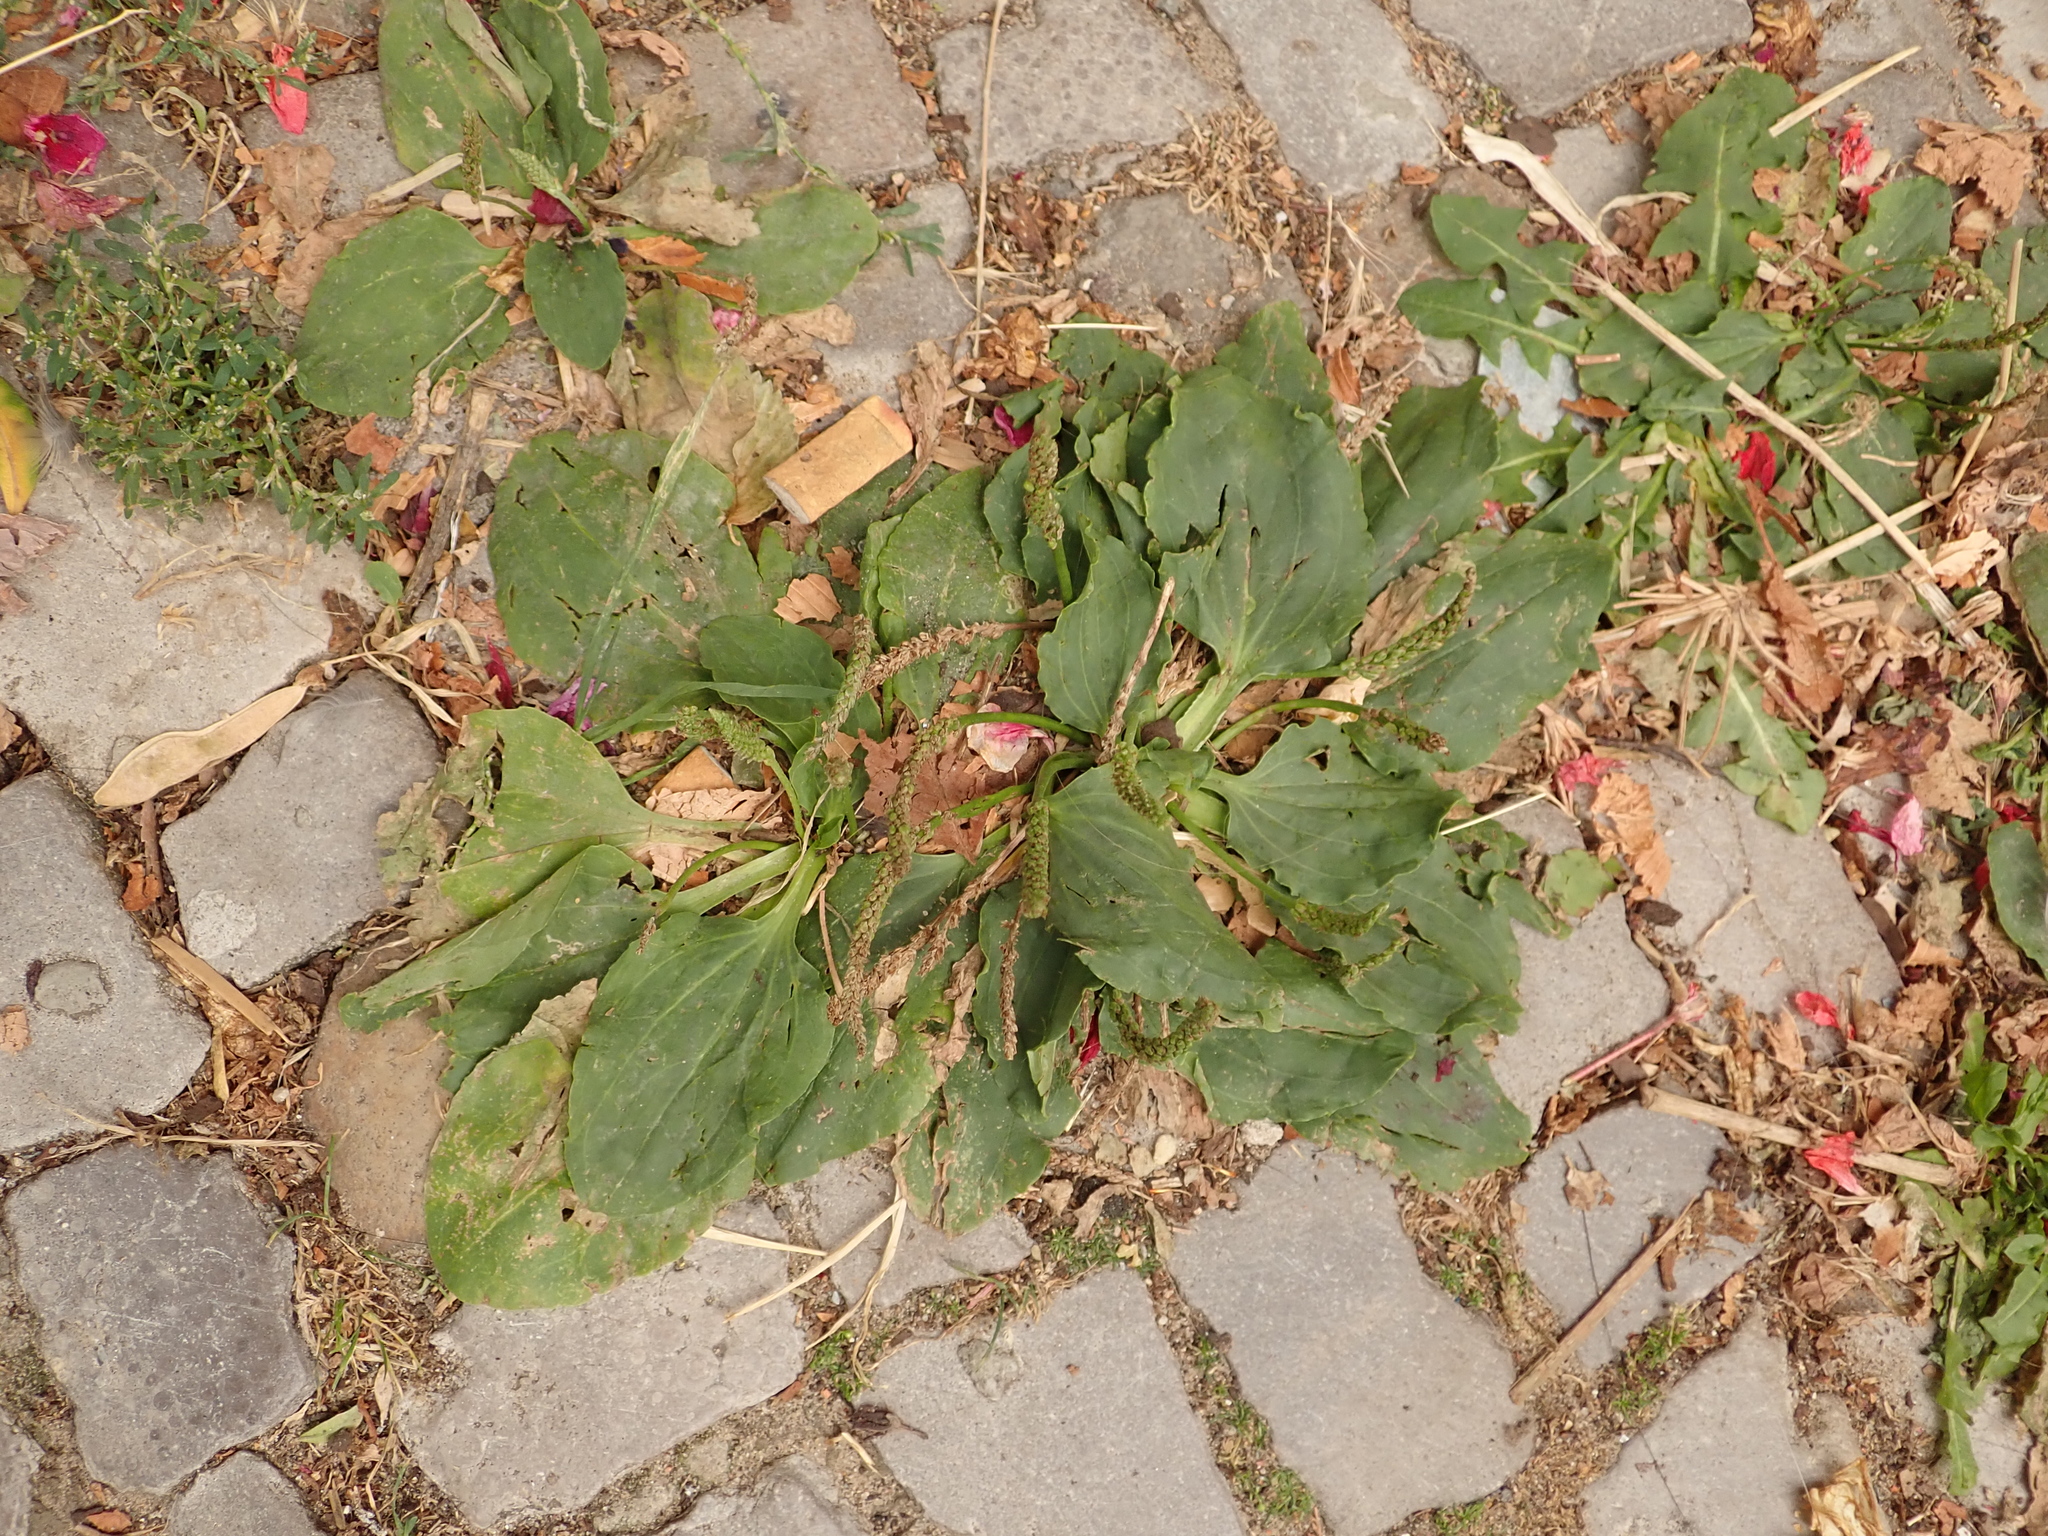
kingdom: Plantae
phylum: Tracheophyta
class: Magnoliopsida
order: Lamiales
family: Plantaginaceae
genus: Plantago
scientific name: Plantago major
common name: Common plantain
